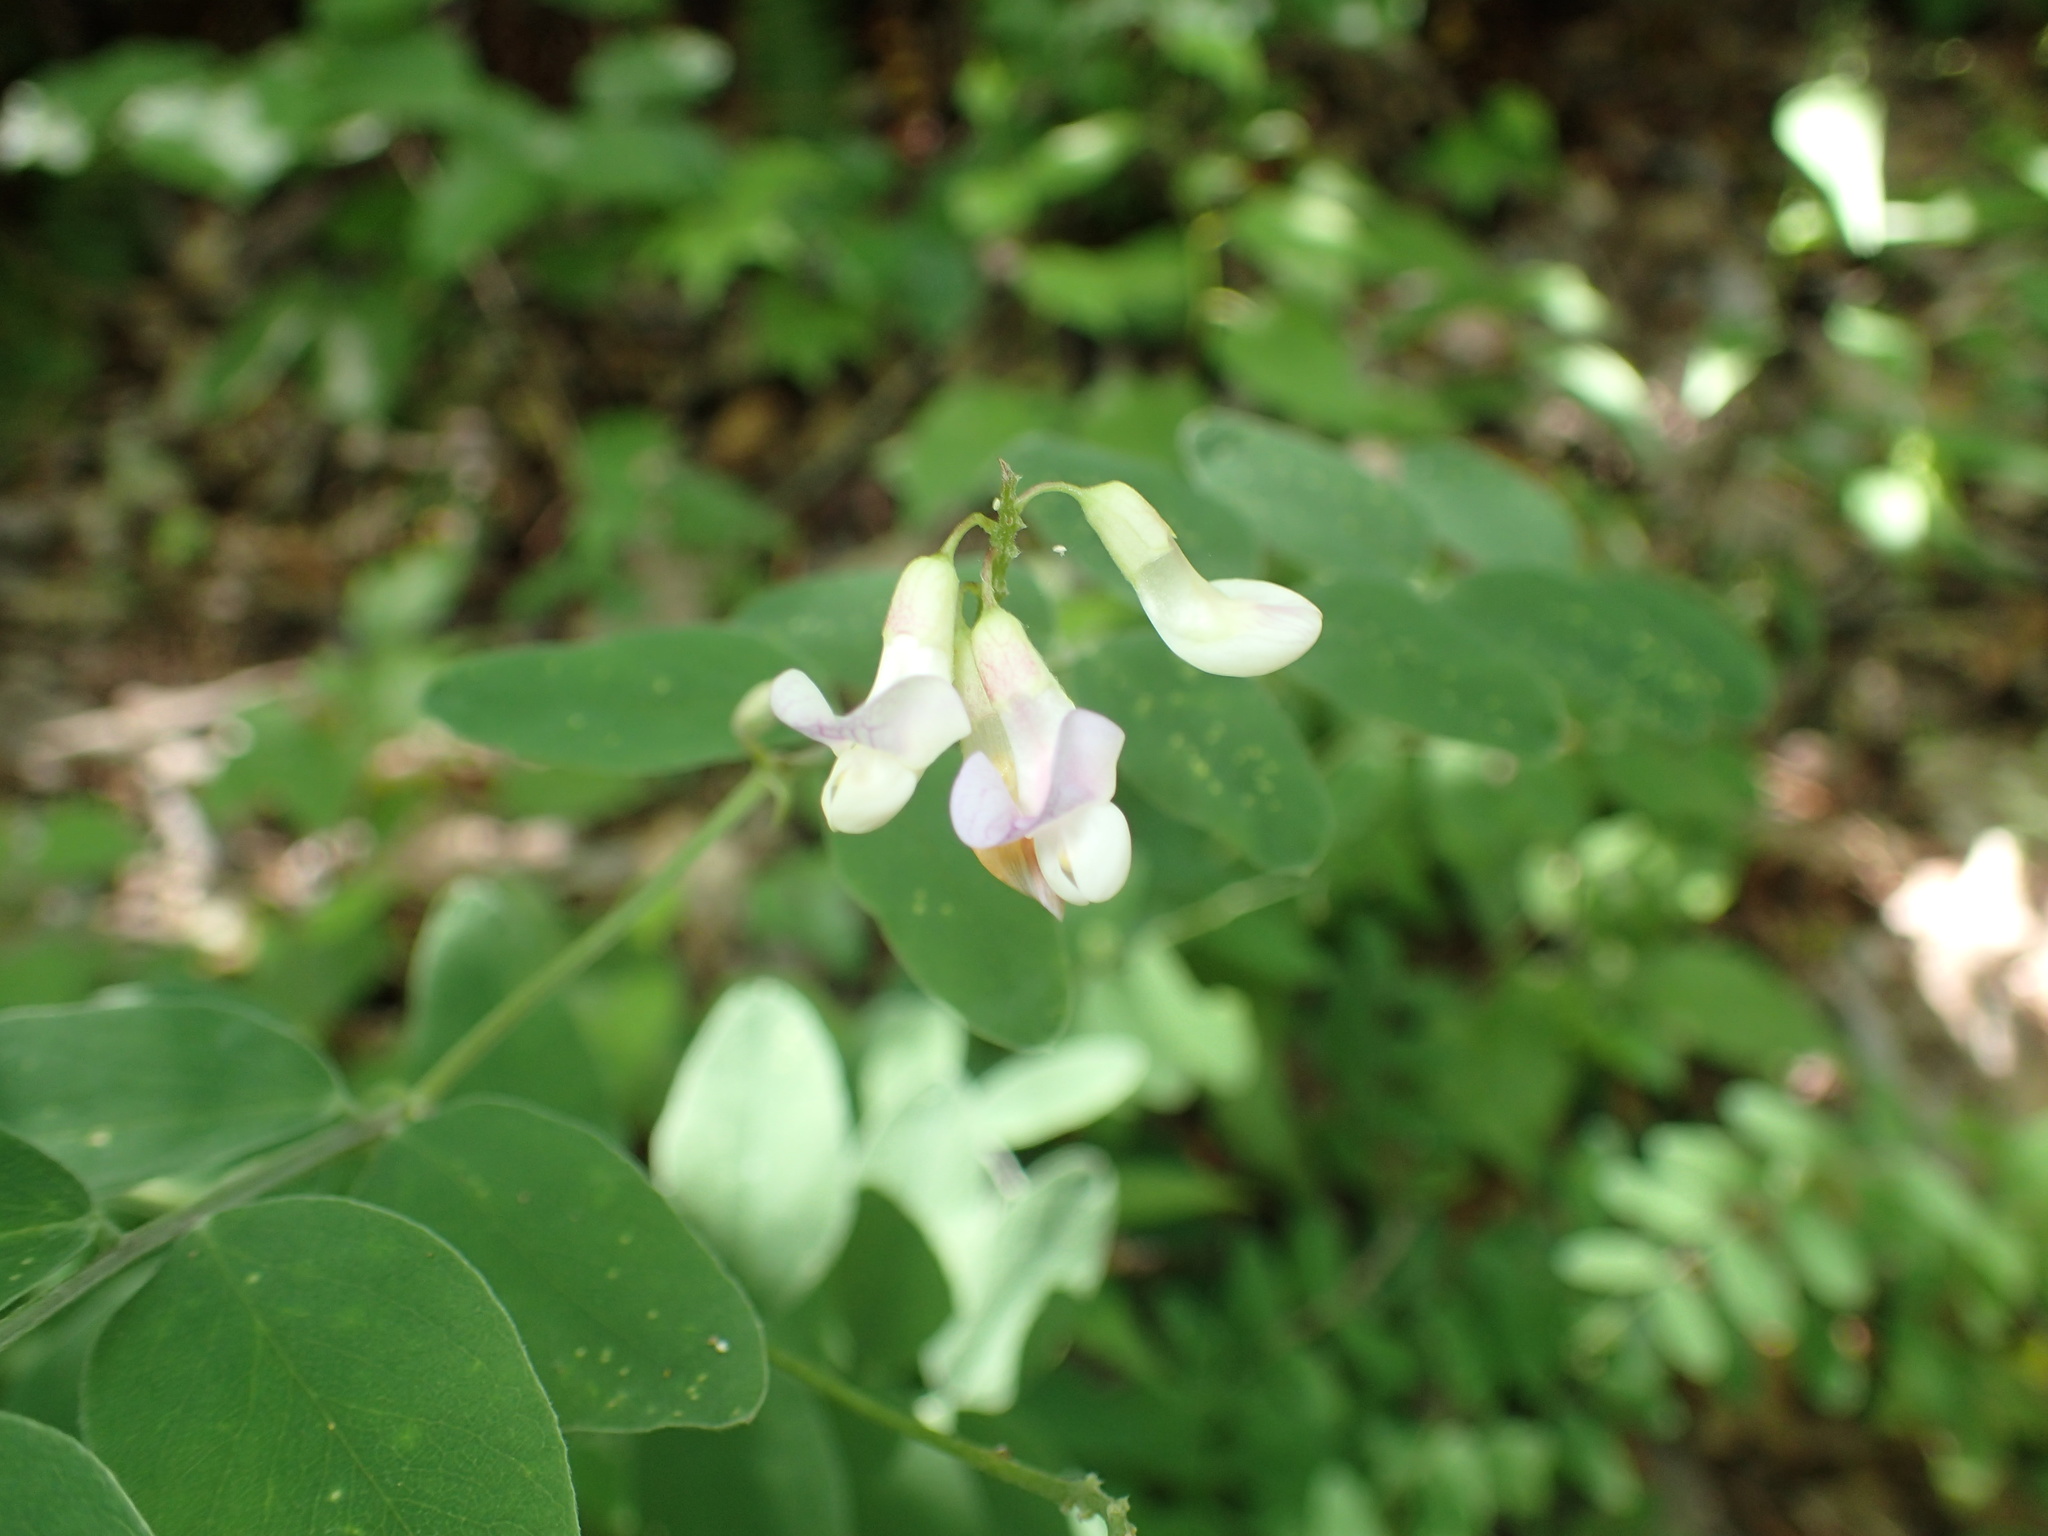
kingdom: Plantae
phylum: Tracheophyta
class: Magnoliopsida
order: Fabales
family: Fabaceae
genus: Lathyrus
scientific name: Lathyrus venosus
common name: Forest-pea
